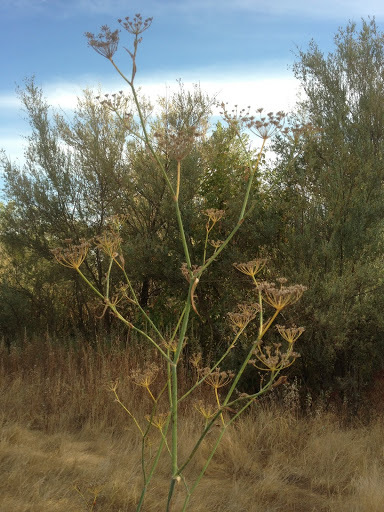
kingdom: Plantae
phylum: Tracheophyta
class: Magnoliopsida
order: Apiales
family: Apiaceae
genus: Foeniculum
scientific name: Foeniculum vulgare
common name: Fennel
